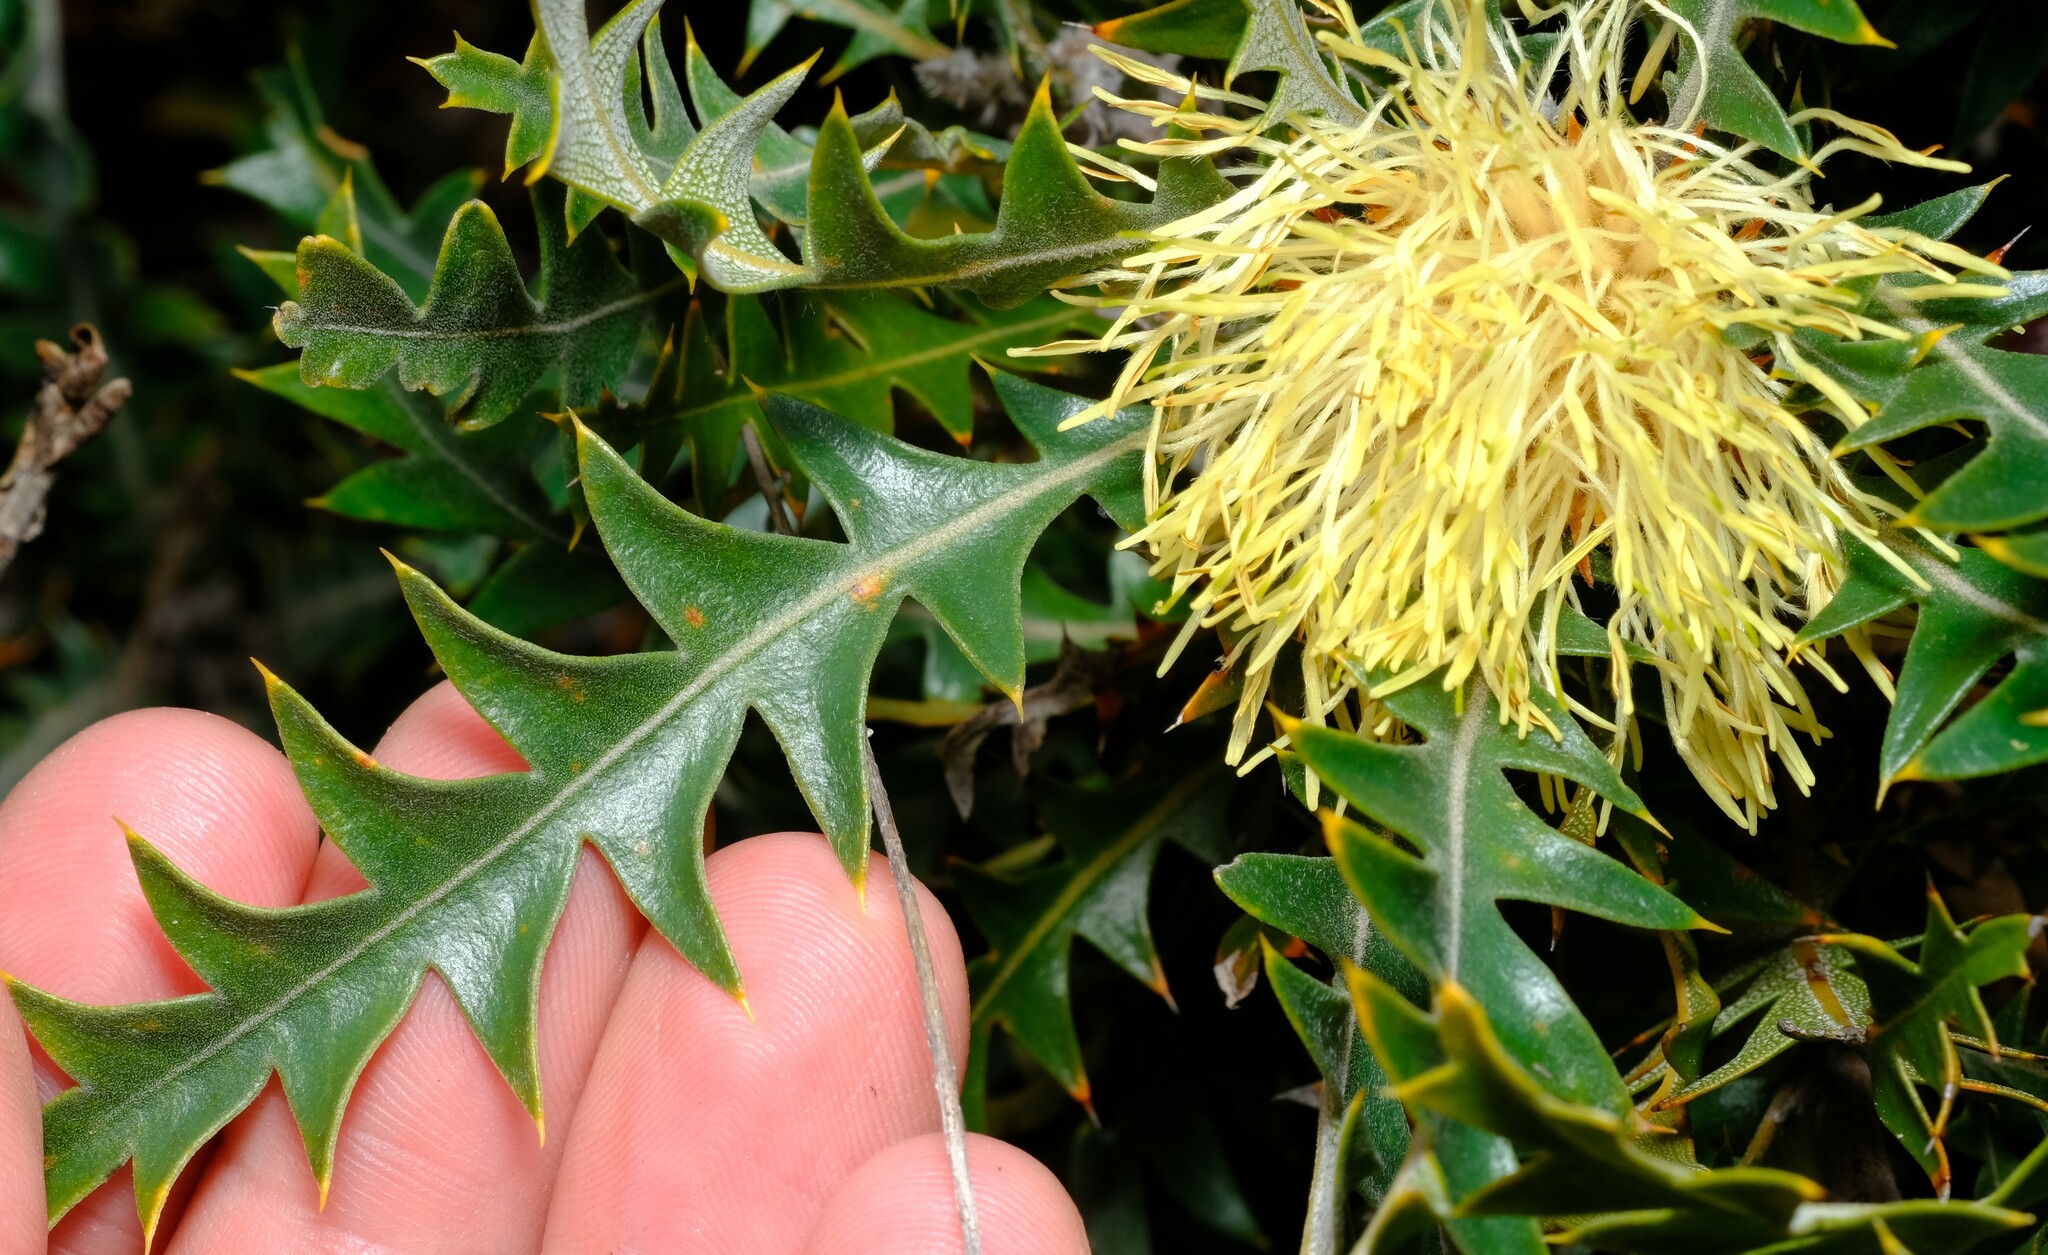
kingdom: Plantae
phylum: Tracheophyta
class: Magnoliopsida
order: Proteales
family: Proteaceae
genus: Banksia
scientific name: Banksia armata
